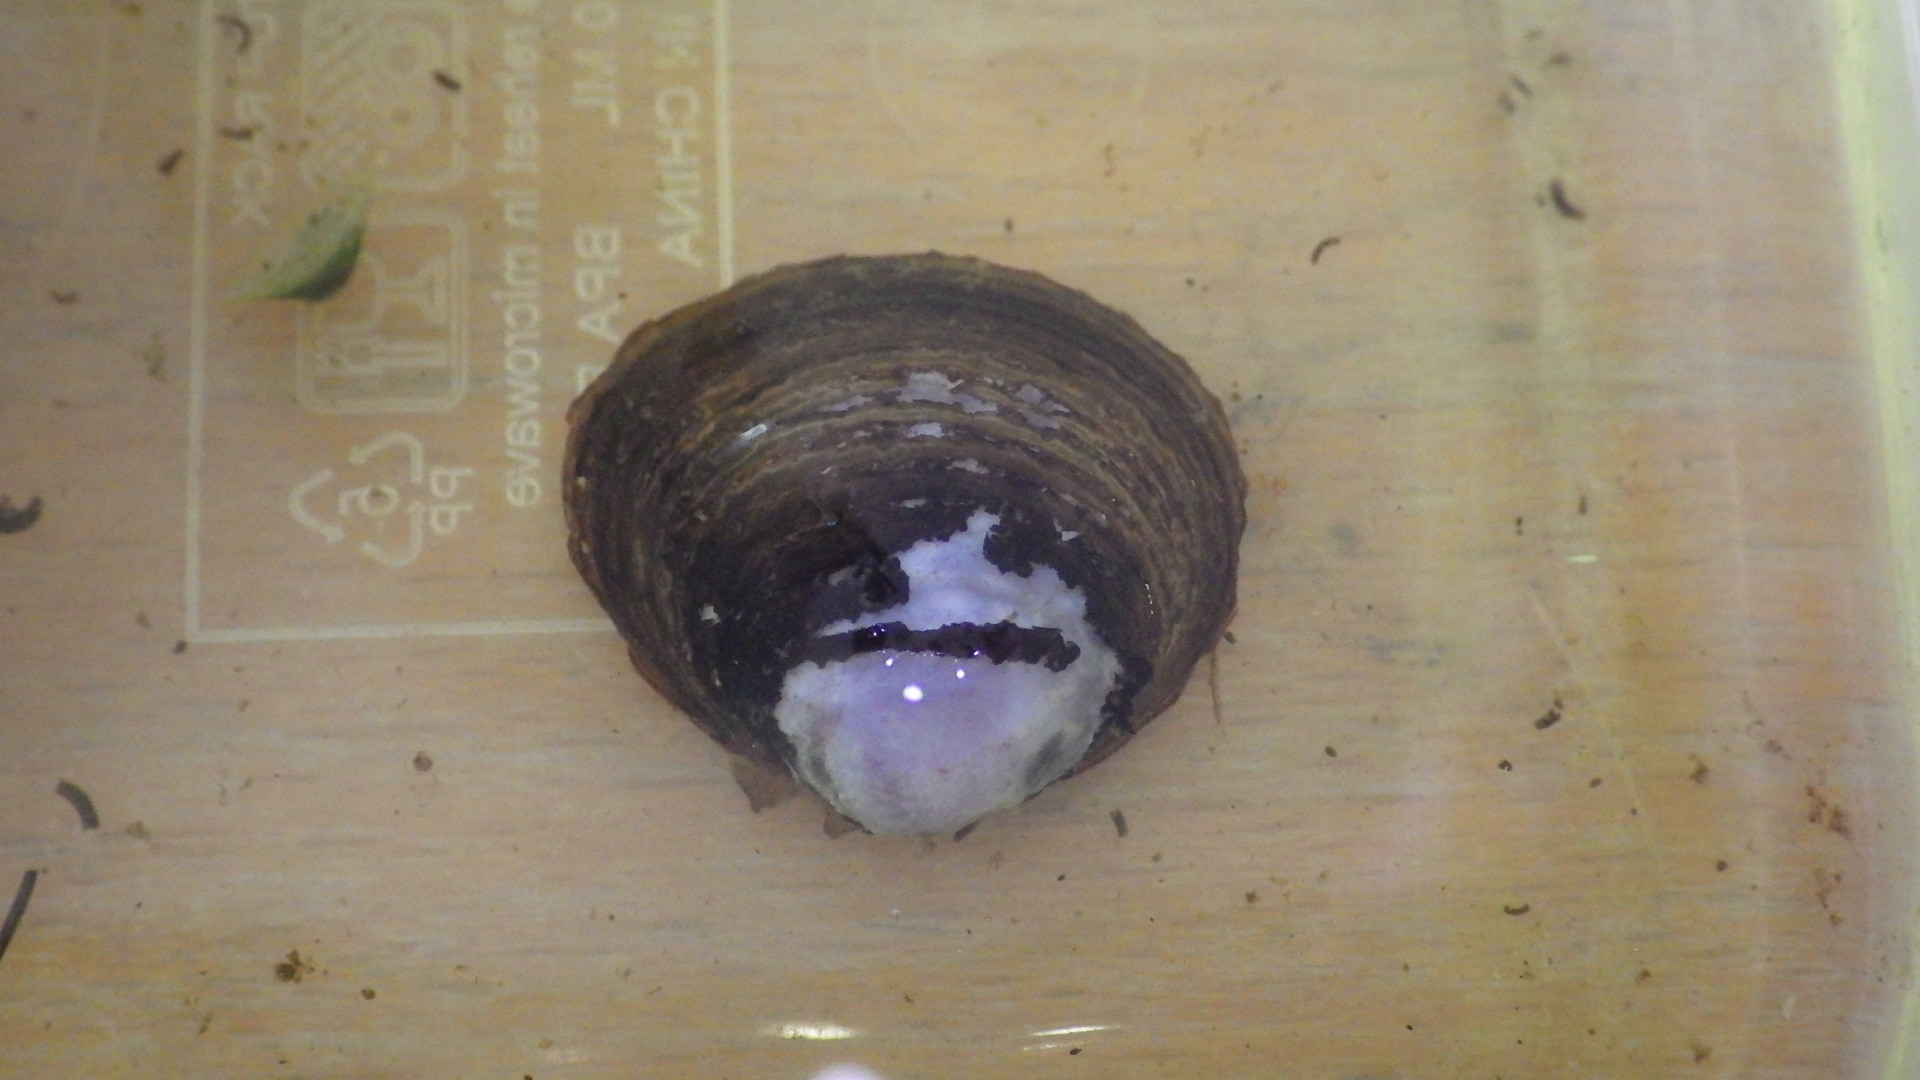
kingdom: Animalia
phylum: Mollusca
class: Bivalvia
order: Venerida
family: Cyrenidae
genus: Corbicula
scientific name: Corbicula fluminea
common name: Asian clam
